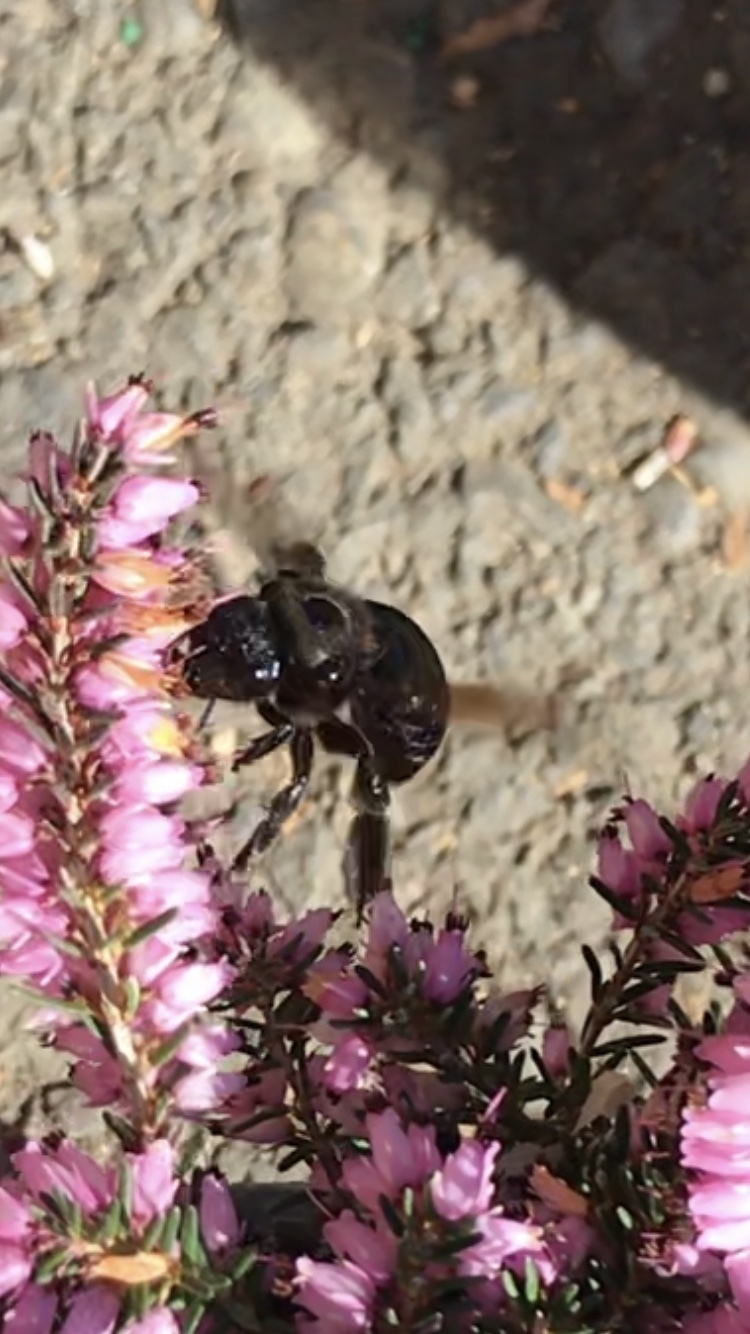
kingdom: Animalia
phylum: Arthropoda
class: Insecta
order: Hymenoptera
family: Apidae
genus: Xylocopa
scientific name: Xylocopa californica
